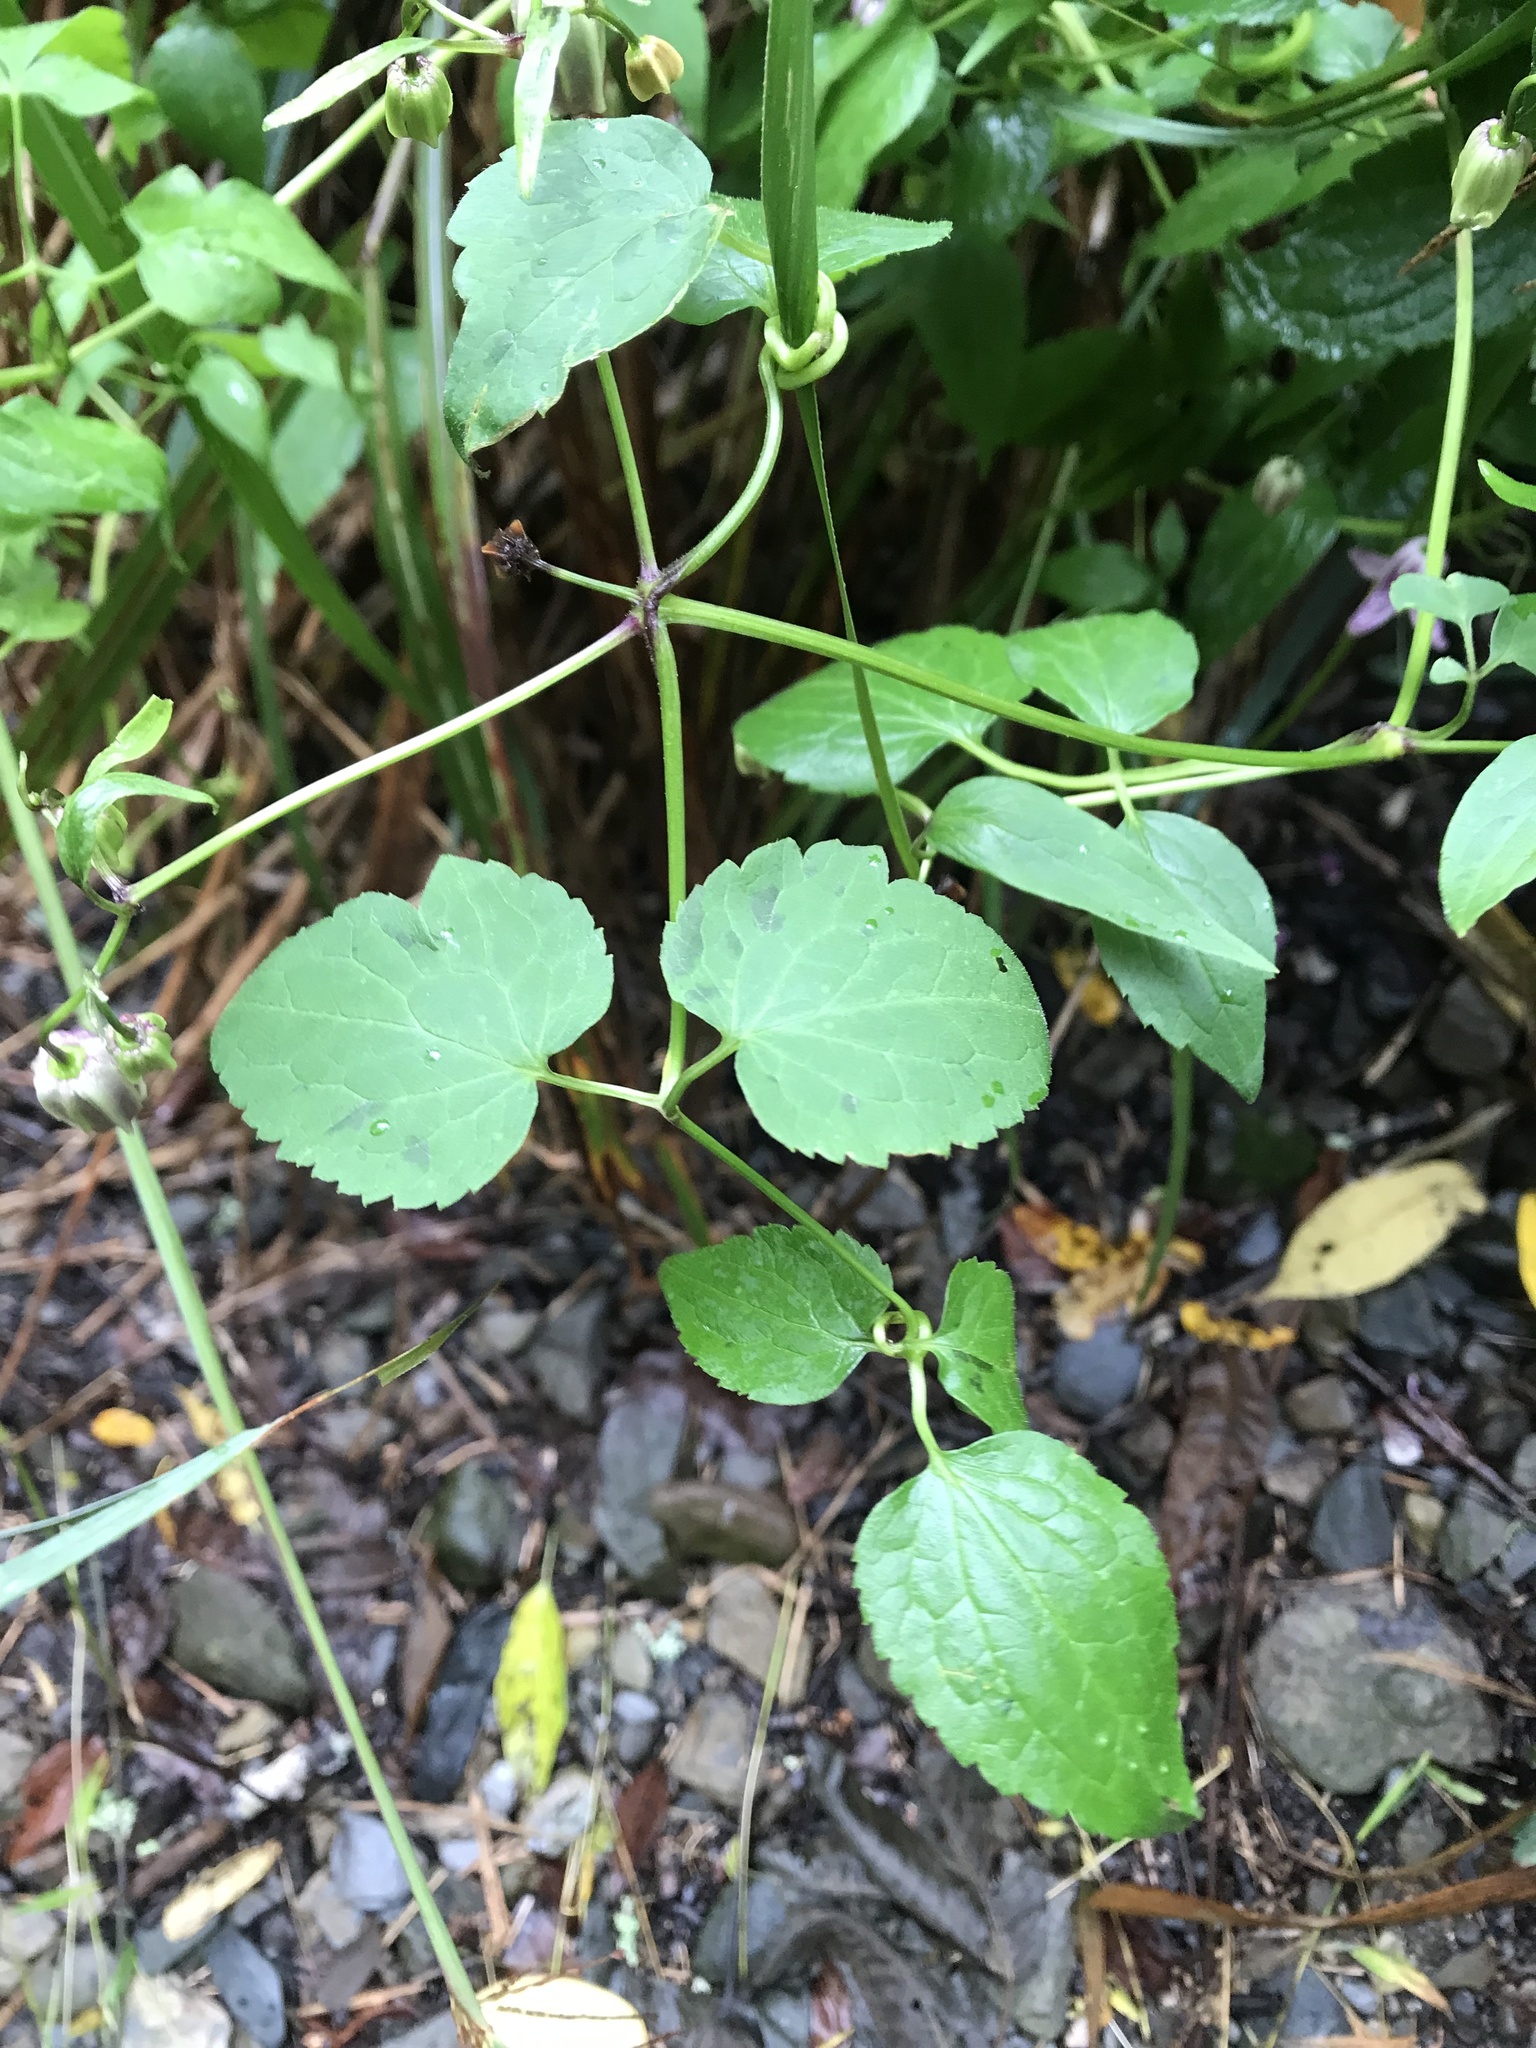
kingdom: Plantae
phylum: Tracheophyta
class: Magnoliopsida
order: Ranunculales
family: Ranunculaceae
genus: Clematis
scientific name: Clematis lasiandra
